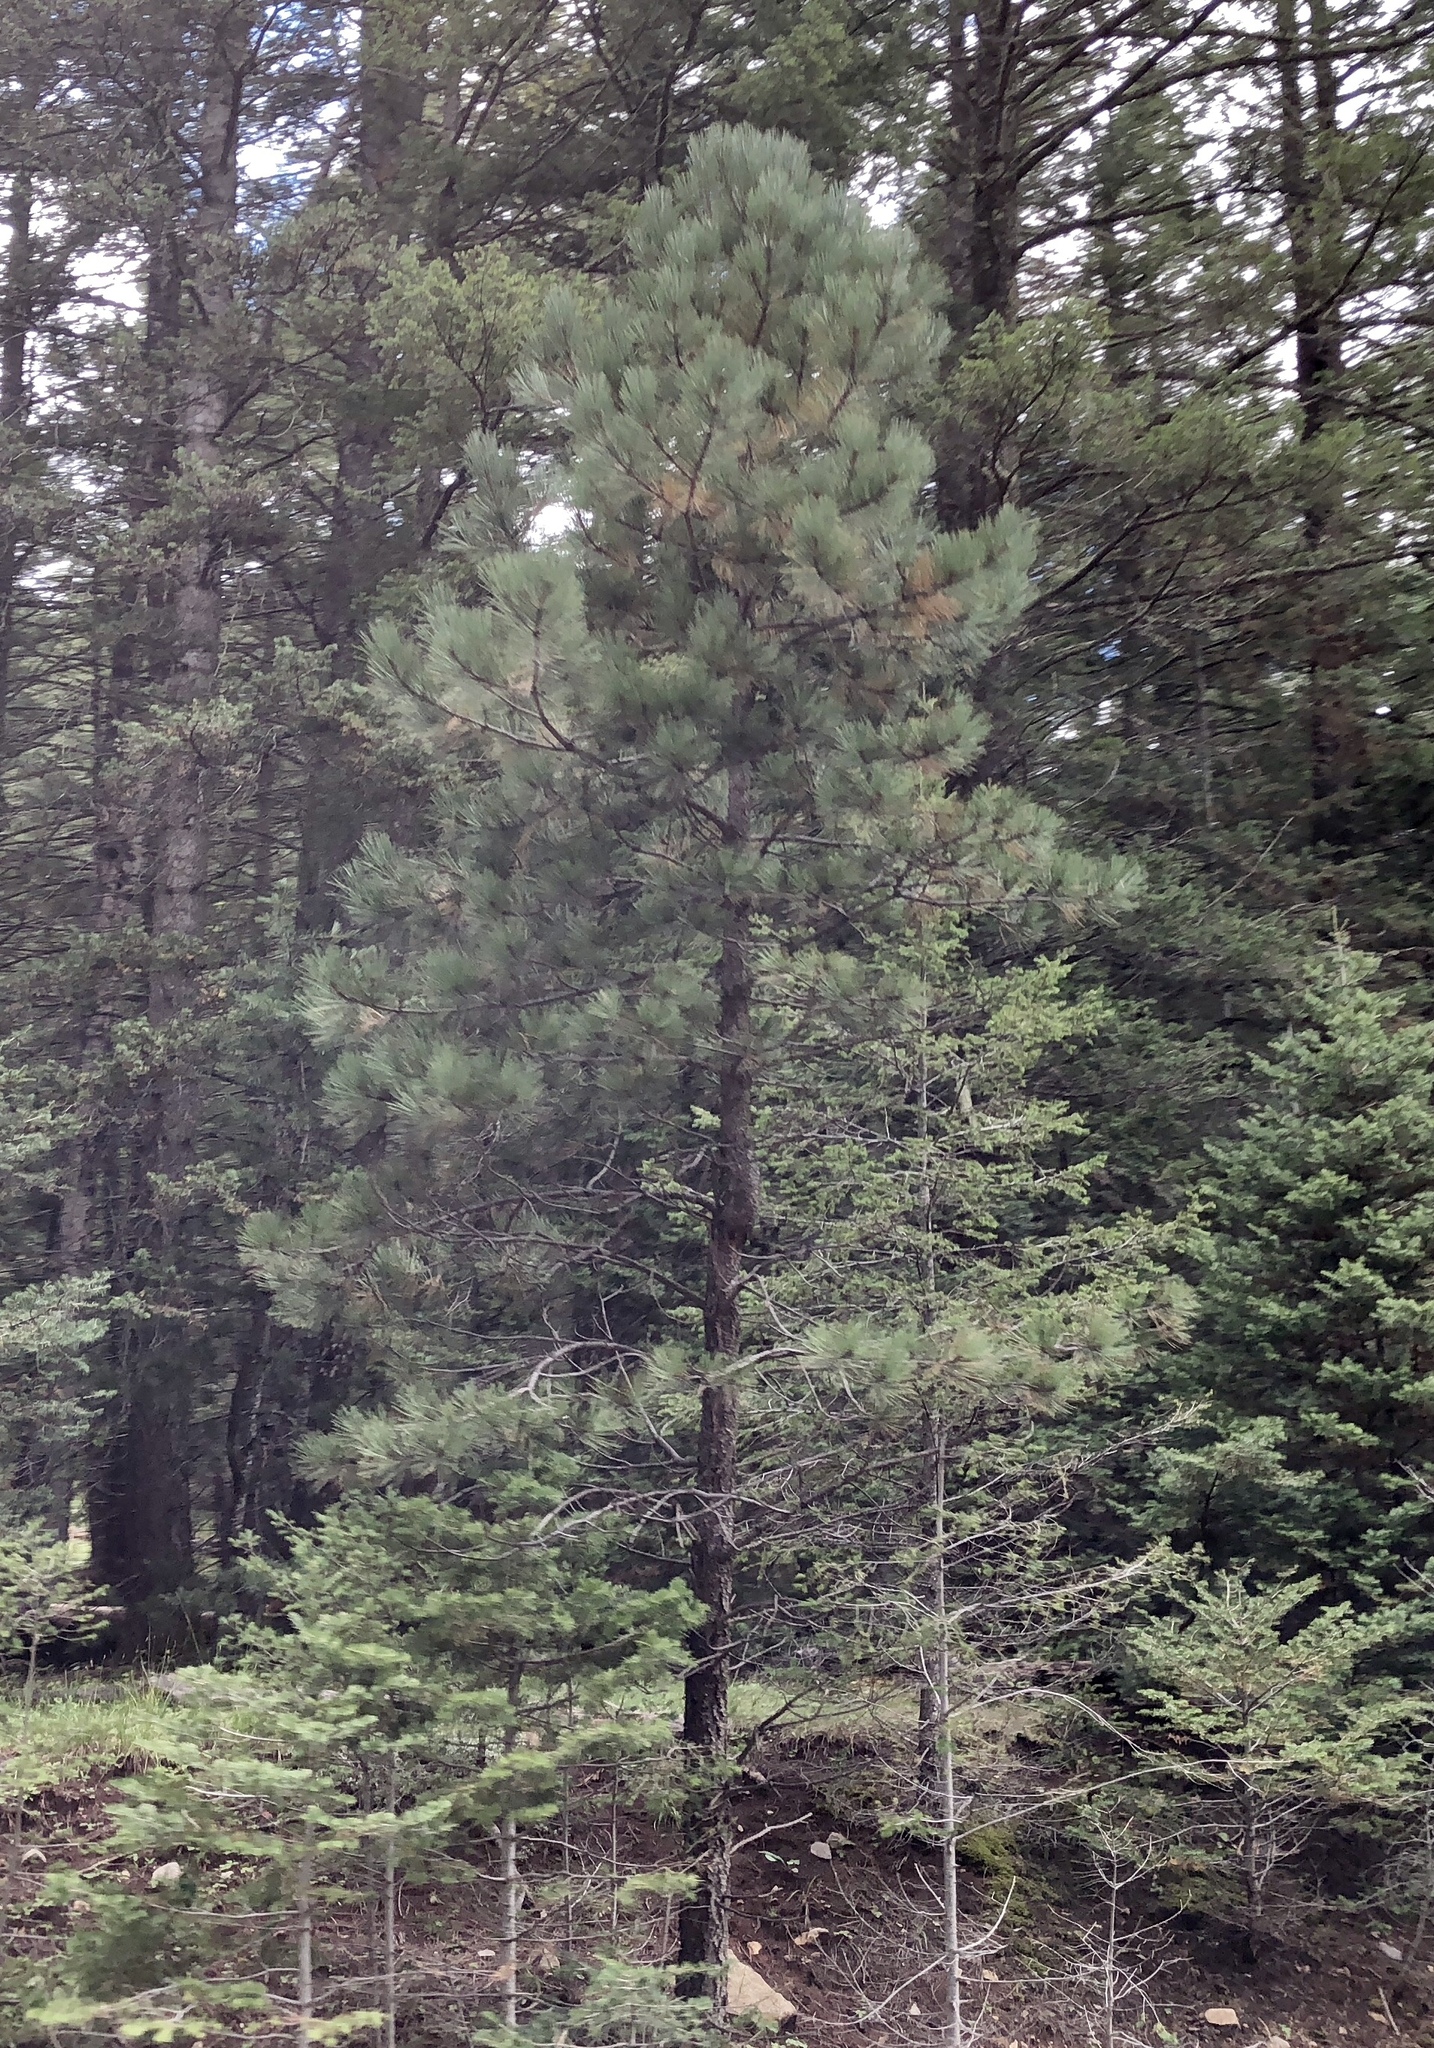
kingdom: Plantae
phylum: Tracheophyta
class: Pinopsida
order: Pinales
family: Pinaceae
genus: Pinus
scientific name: Pinus ponderosa
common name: Western yellow-pine
